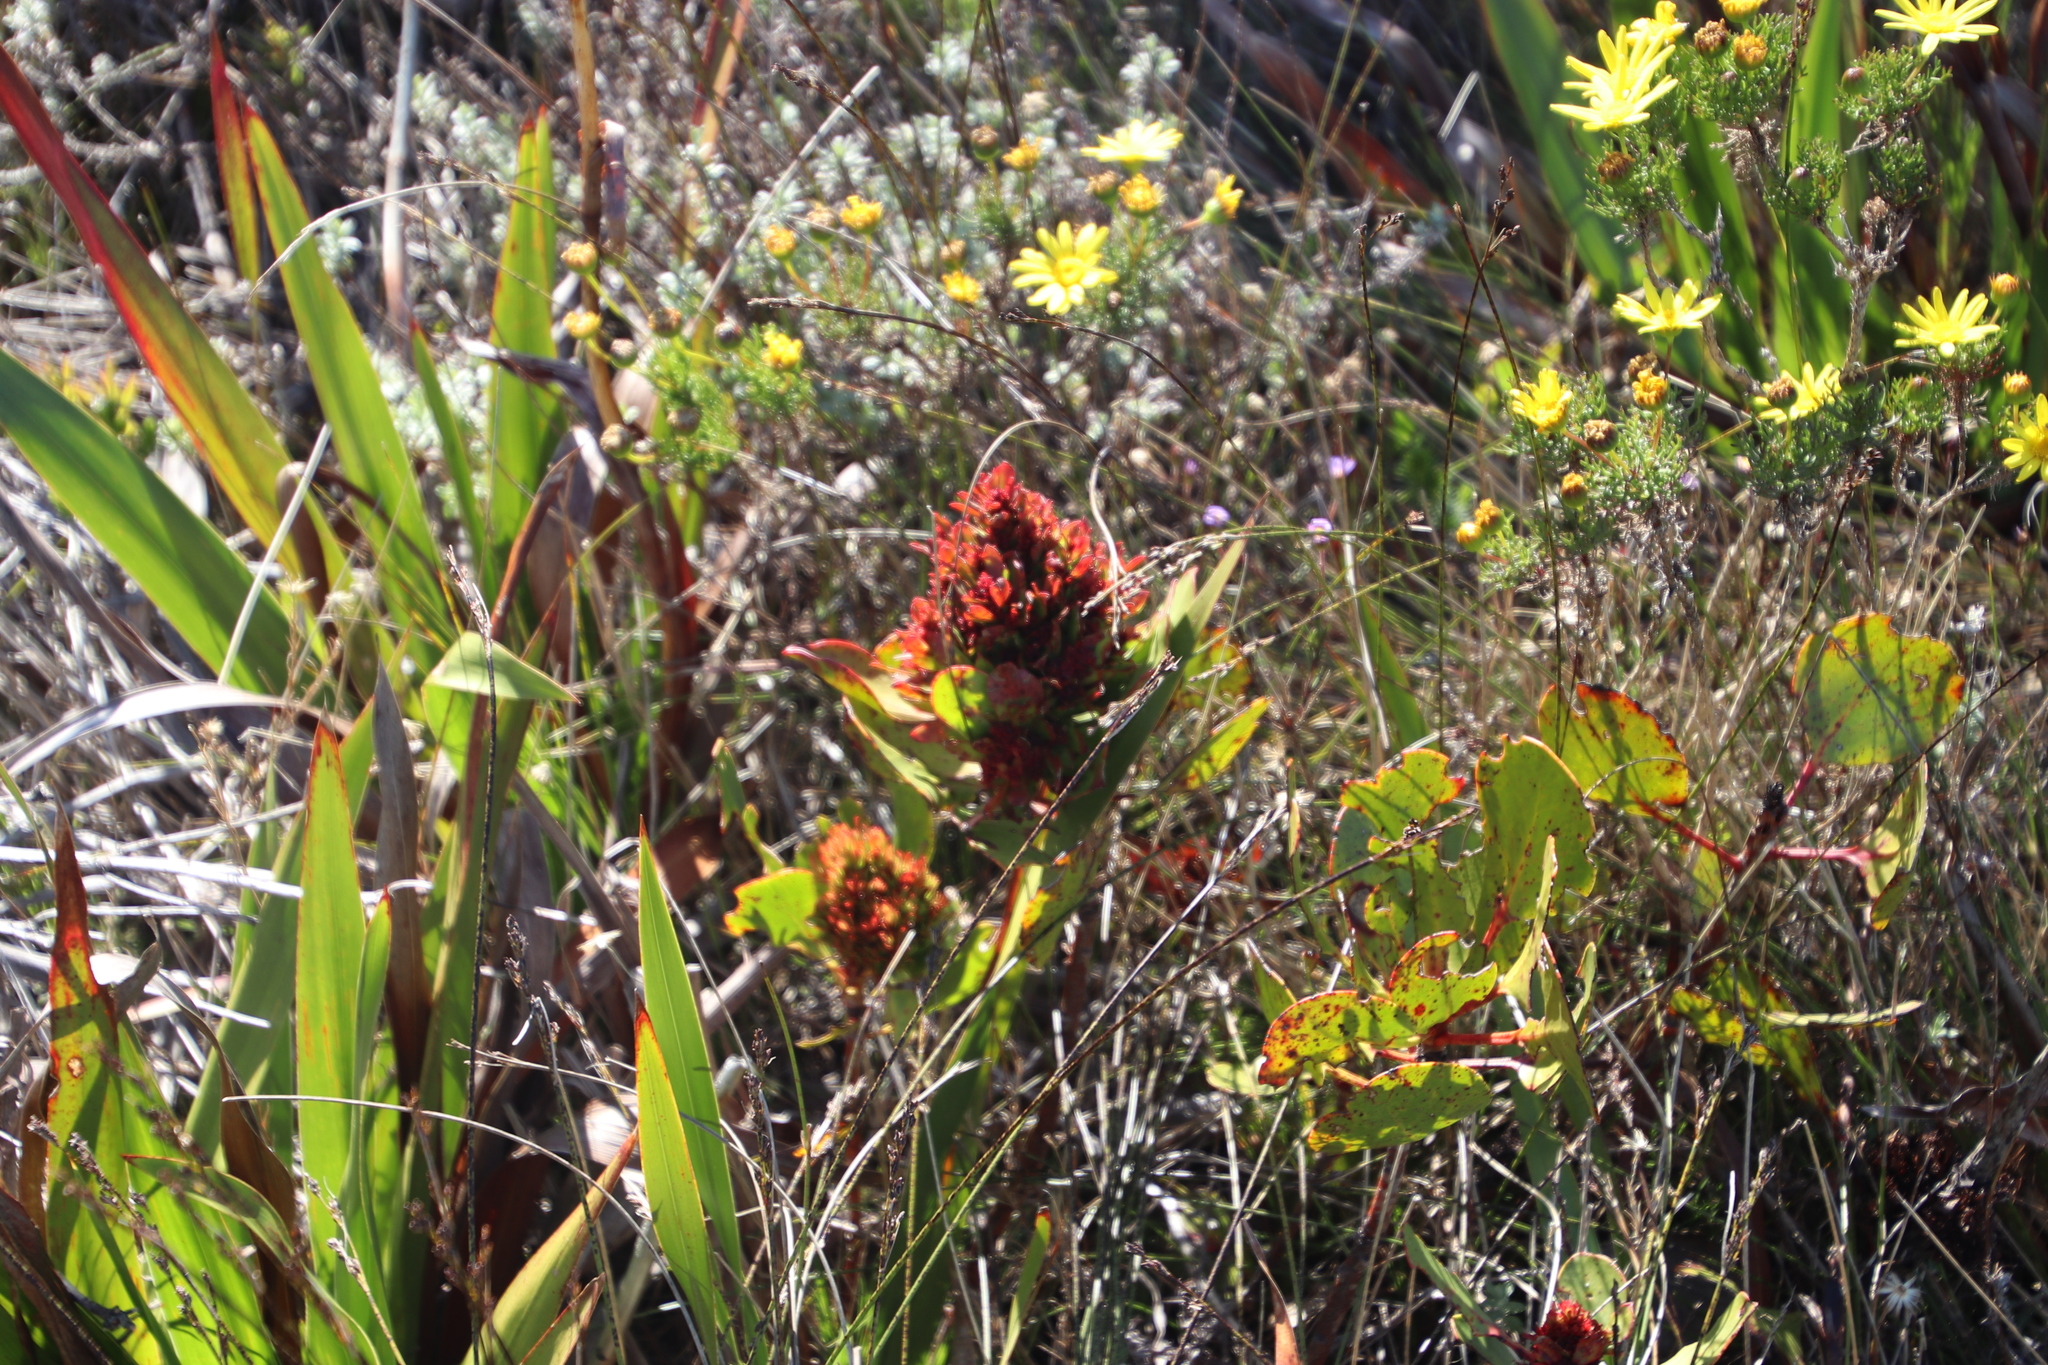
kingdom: Bacteria
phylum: Firmicutes
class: Bacilli
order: Acholeplasmatales
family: Acholeplasmataceae
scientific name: Acholeplasmataceae
